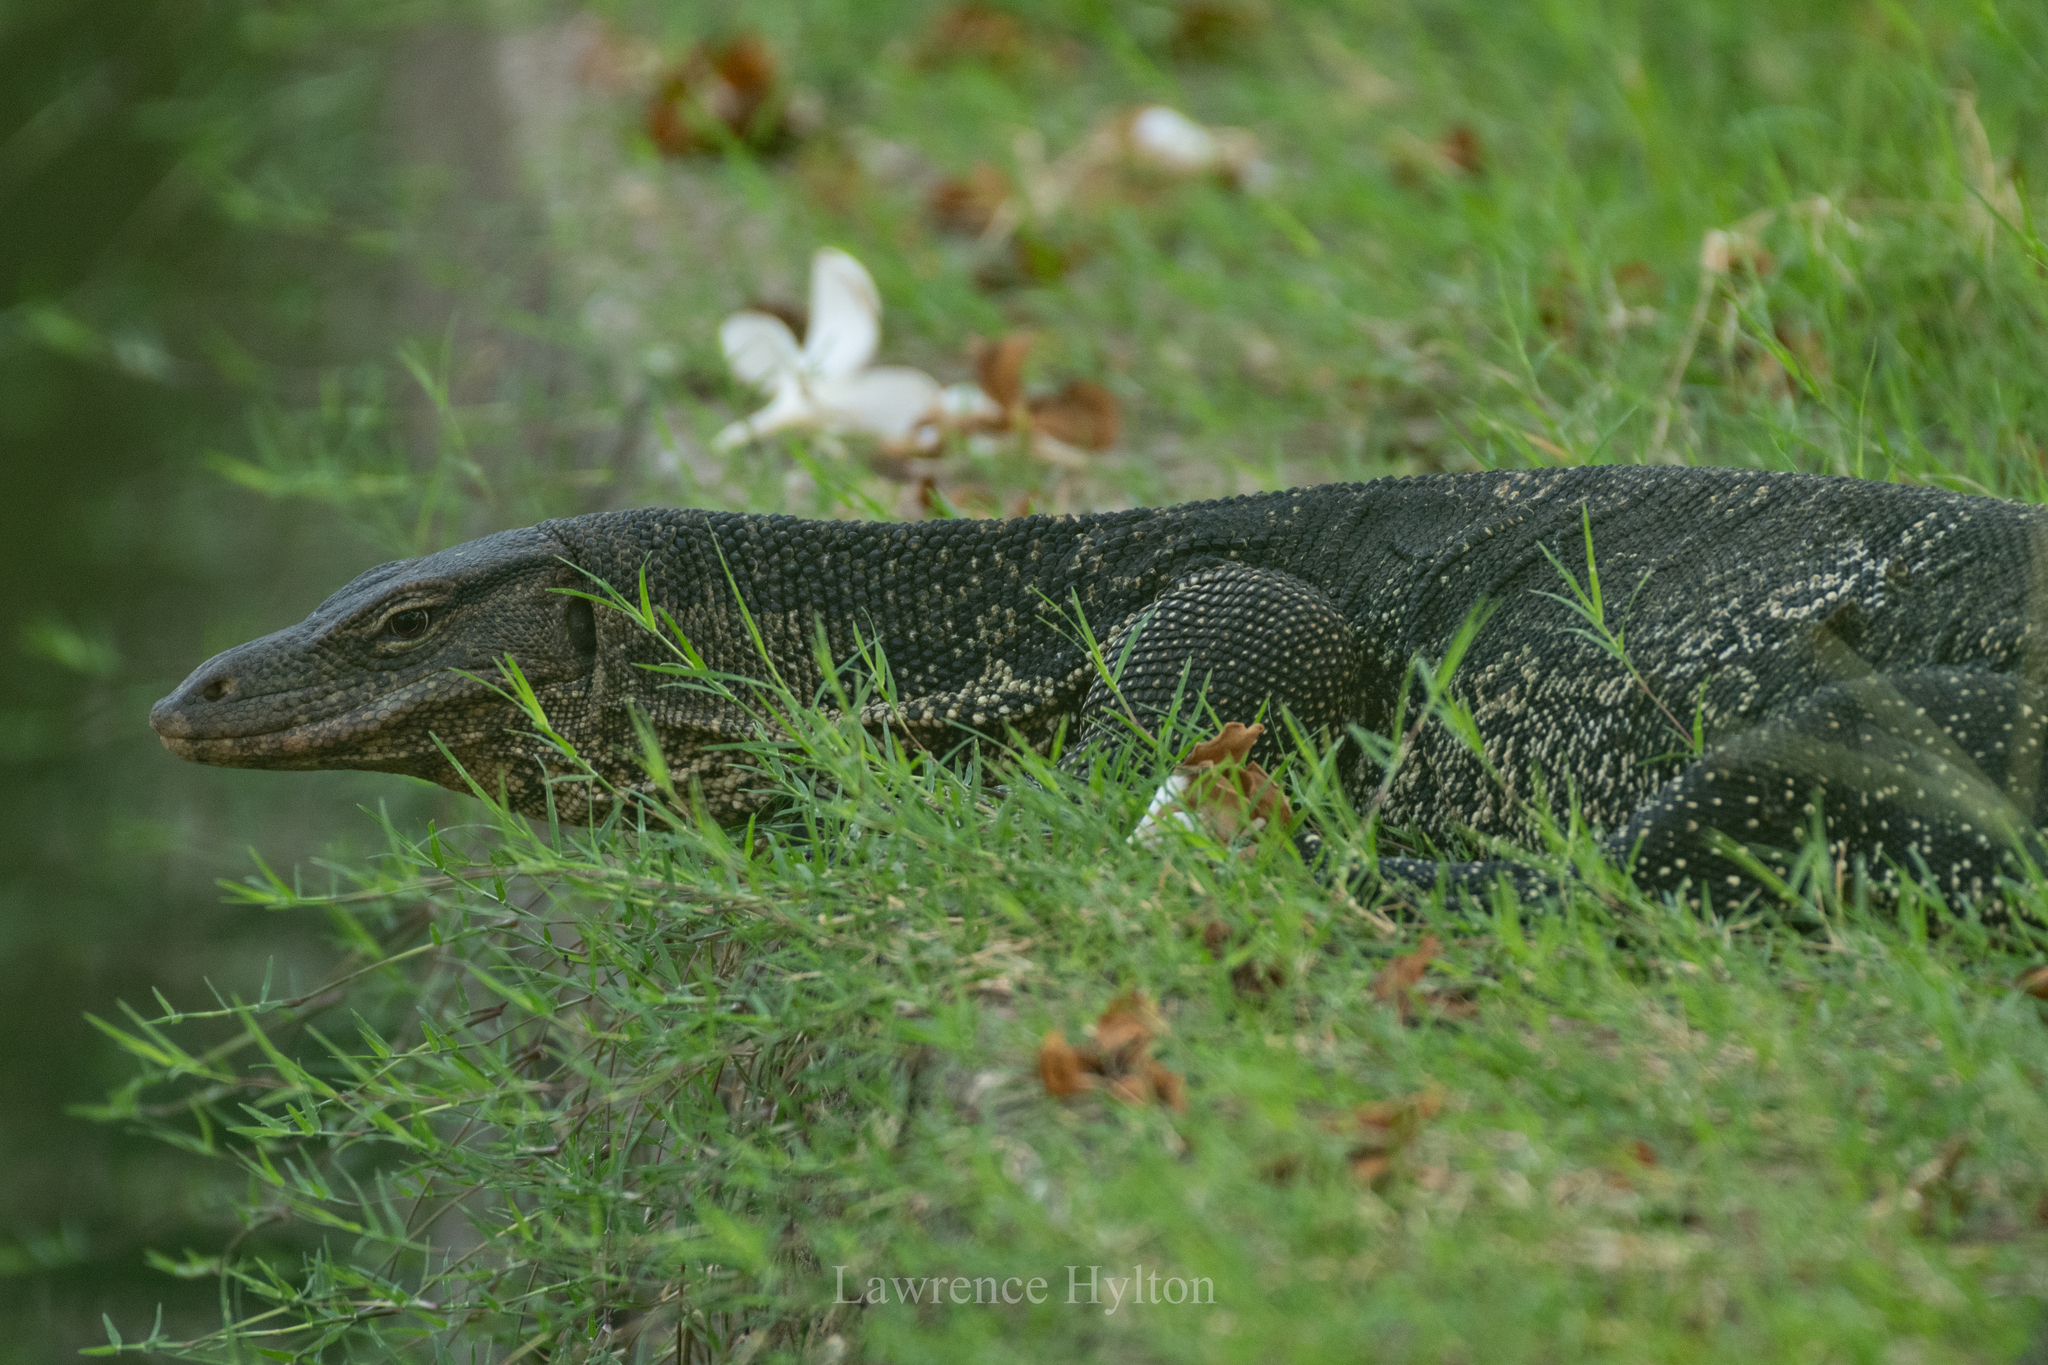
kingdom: Animalia
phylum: Chordata
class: Squamata
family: Varanidae
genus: Varanus
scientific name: Varanus salvator
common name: Common water monitor
